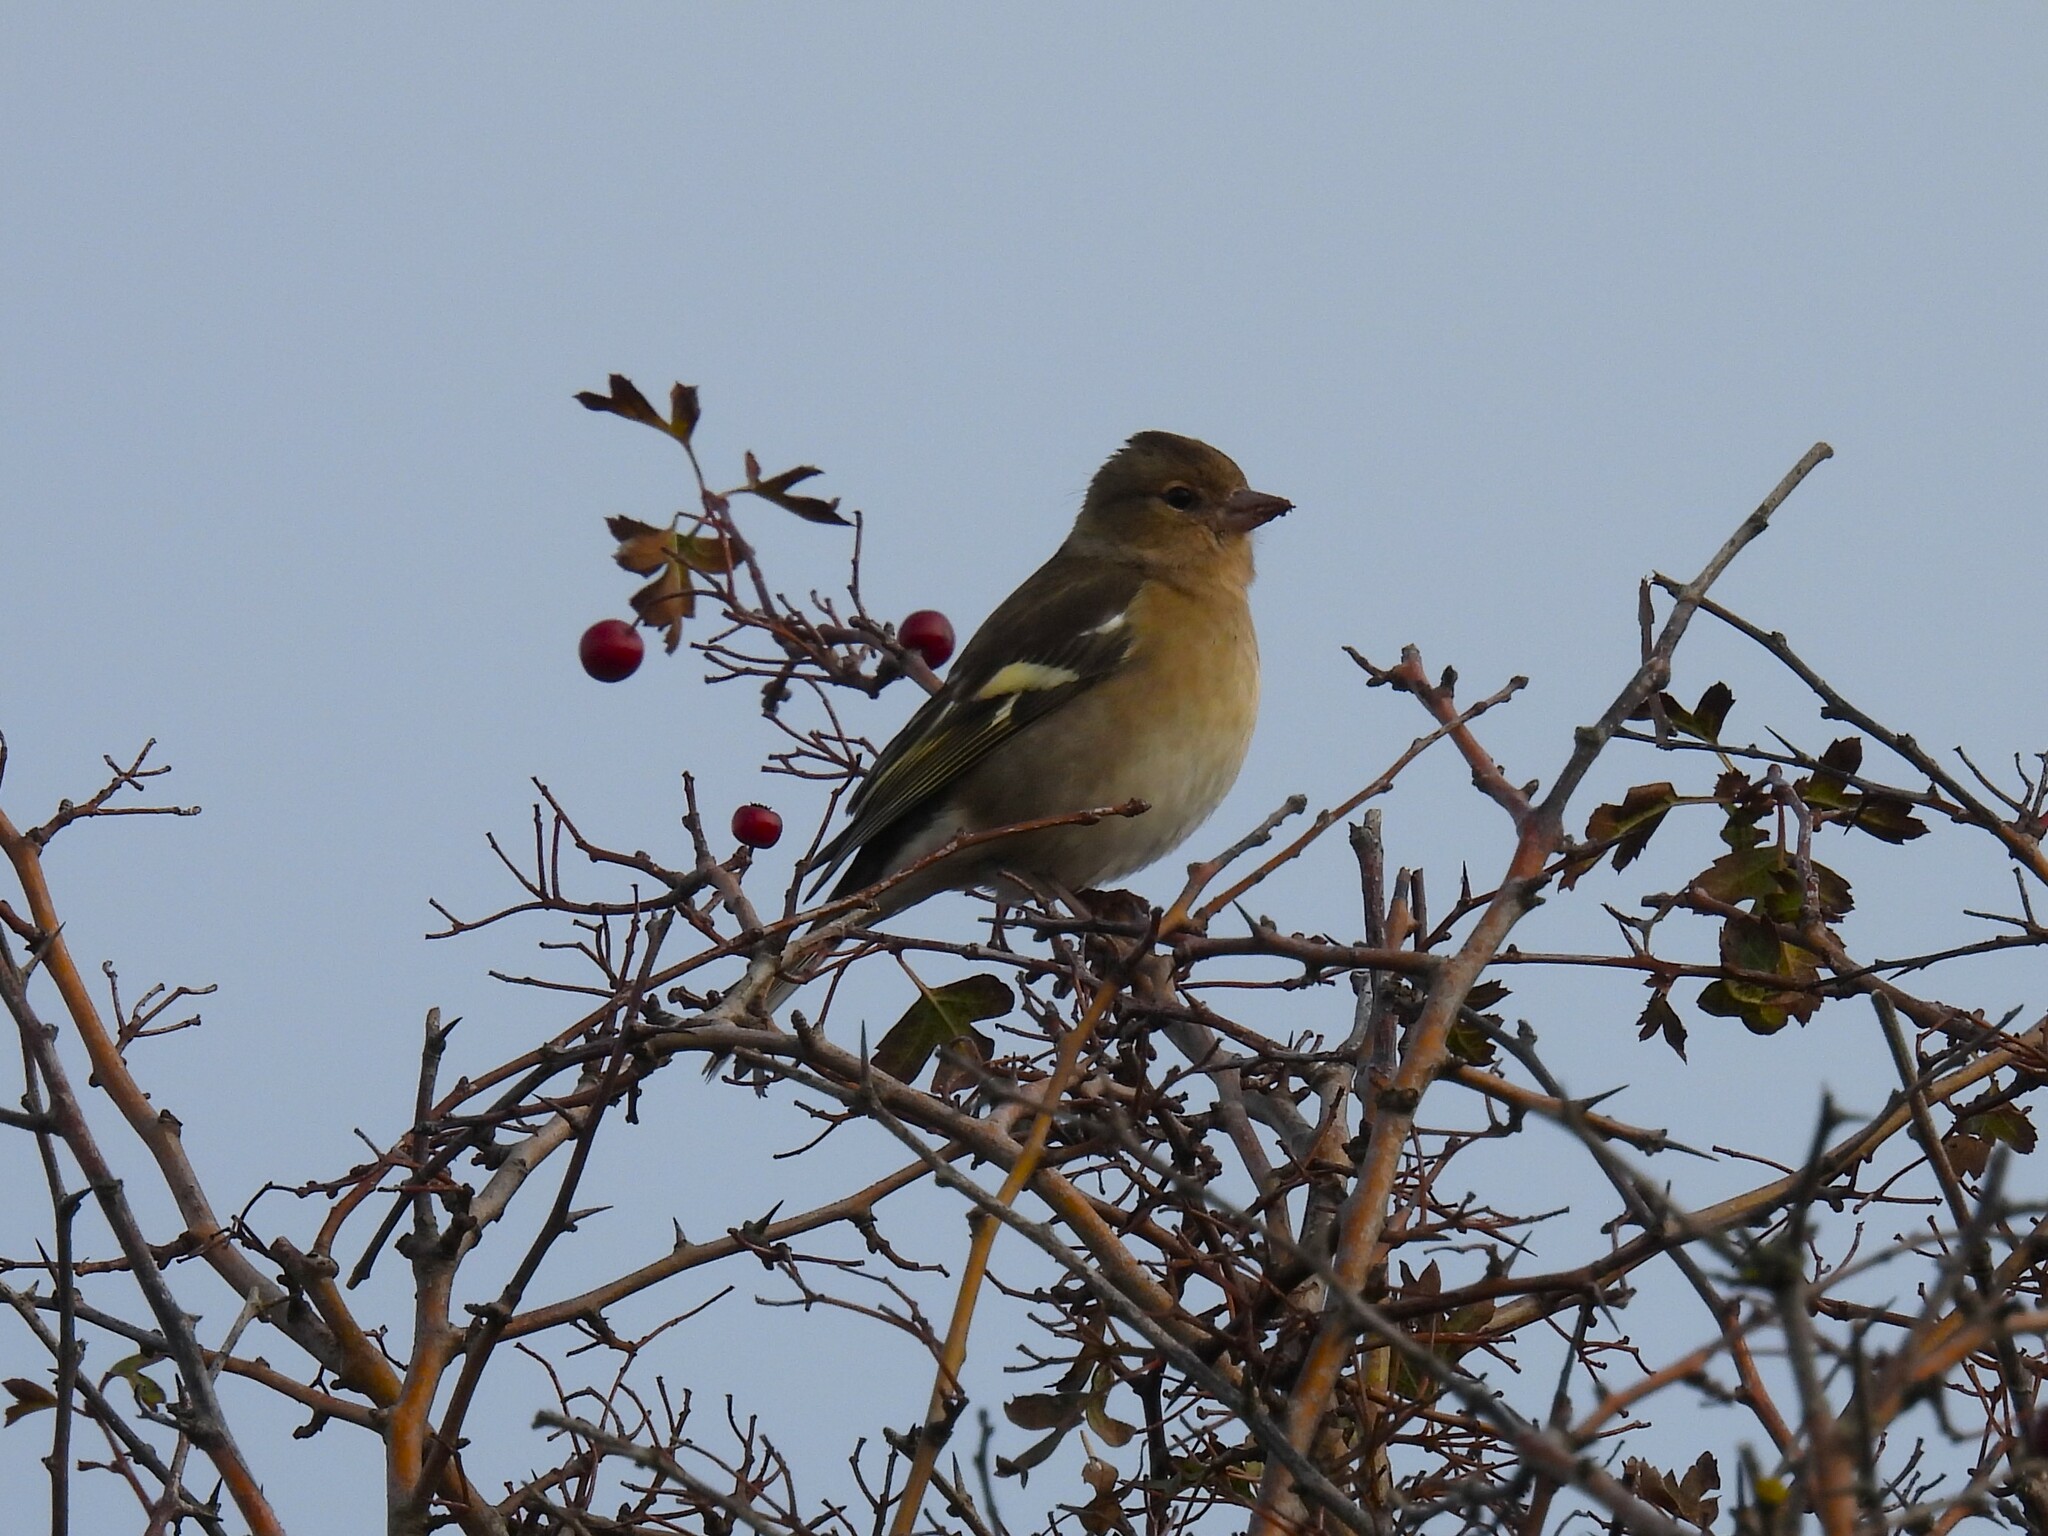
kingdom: Animalia
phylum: Chordata
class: Aves
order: Passeriformes
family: Fringillidae
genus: Fringilla
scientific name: Fringilla coelebs
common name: Common chaffinch
